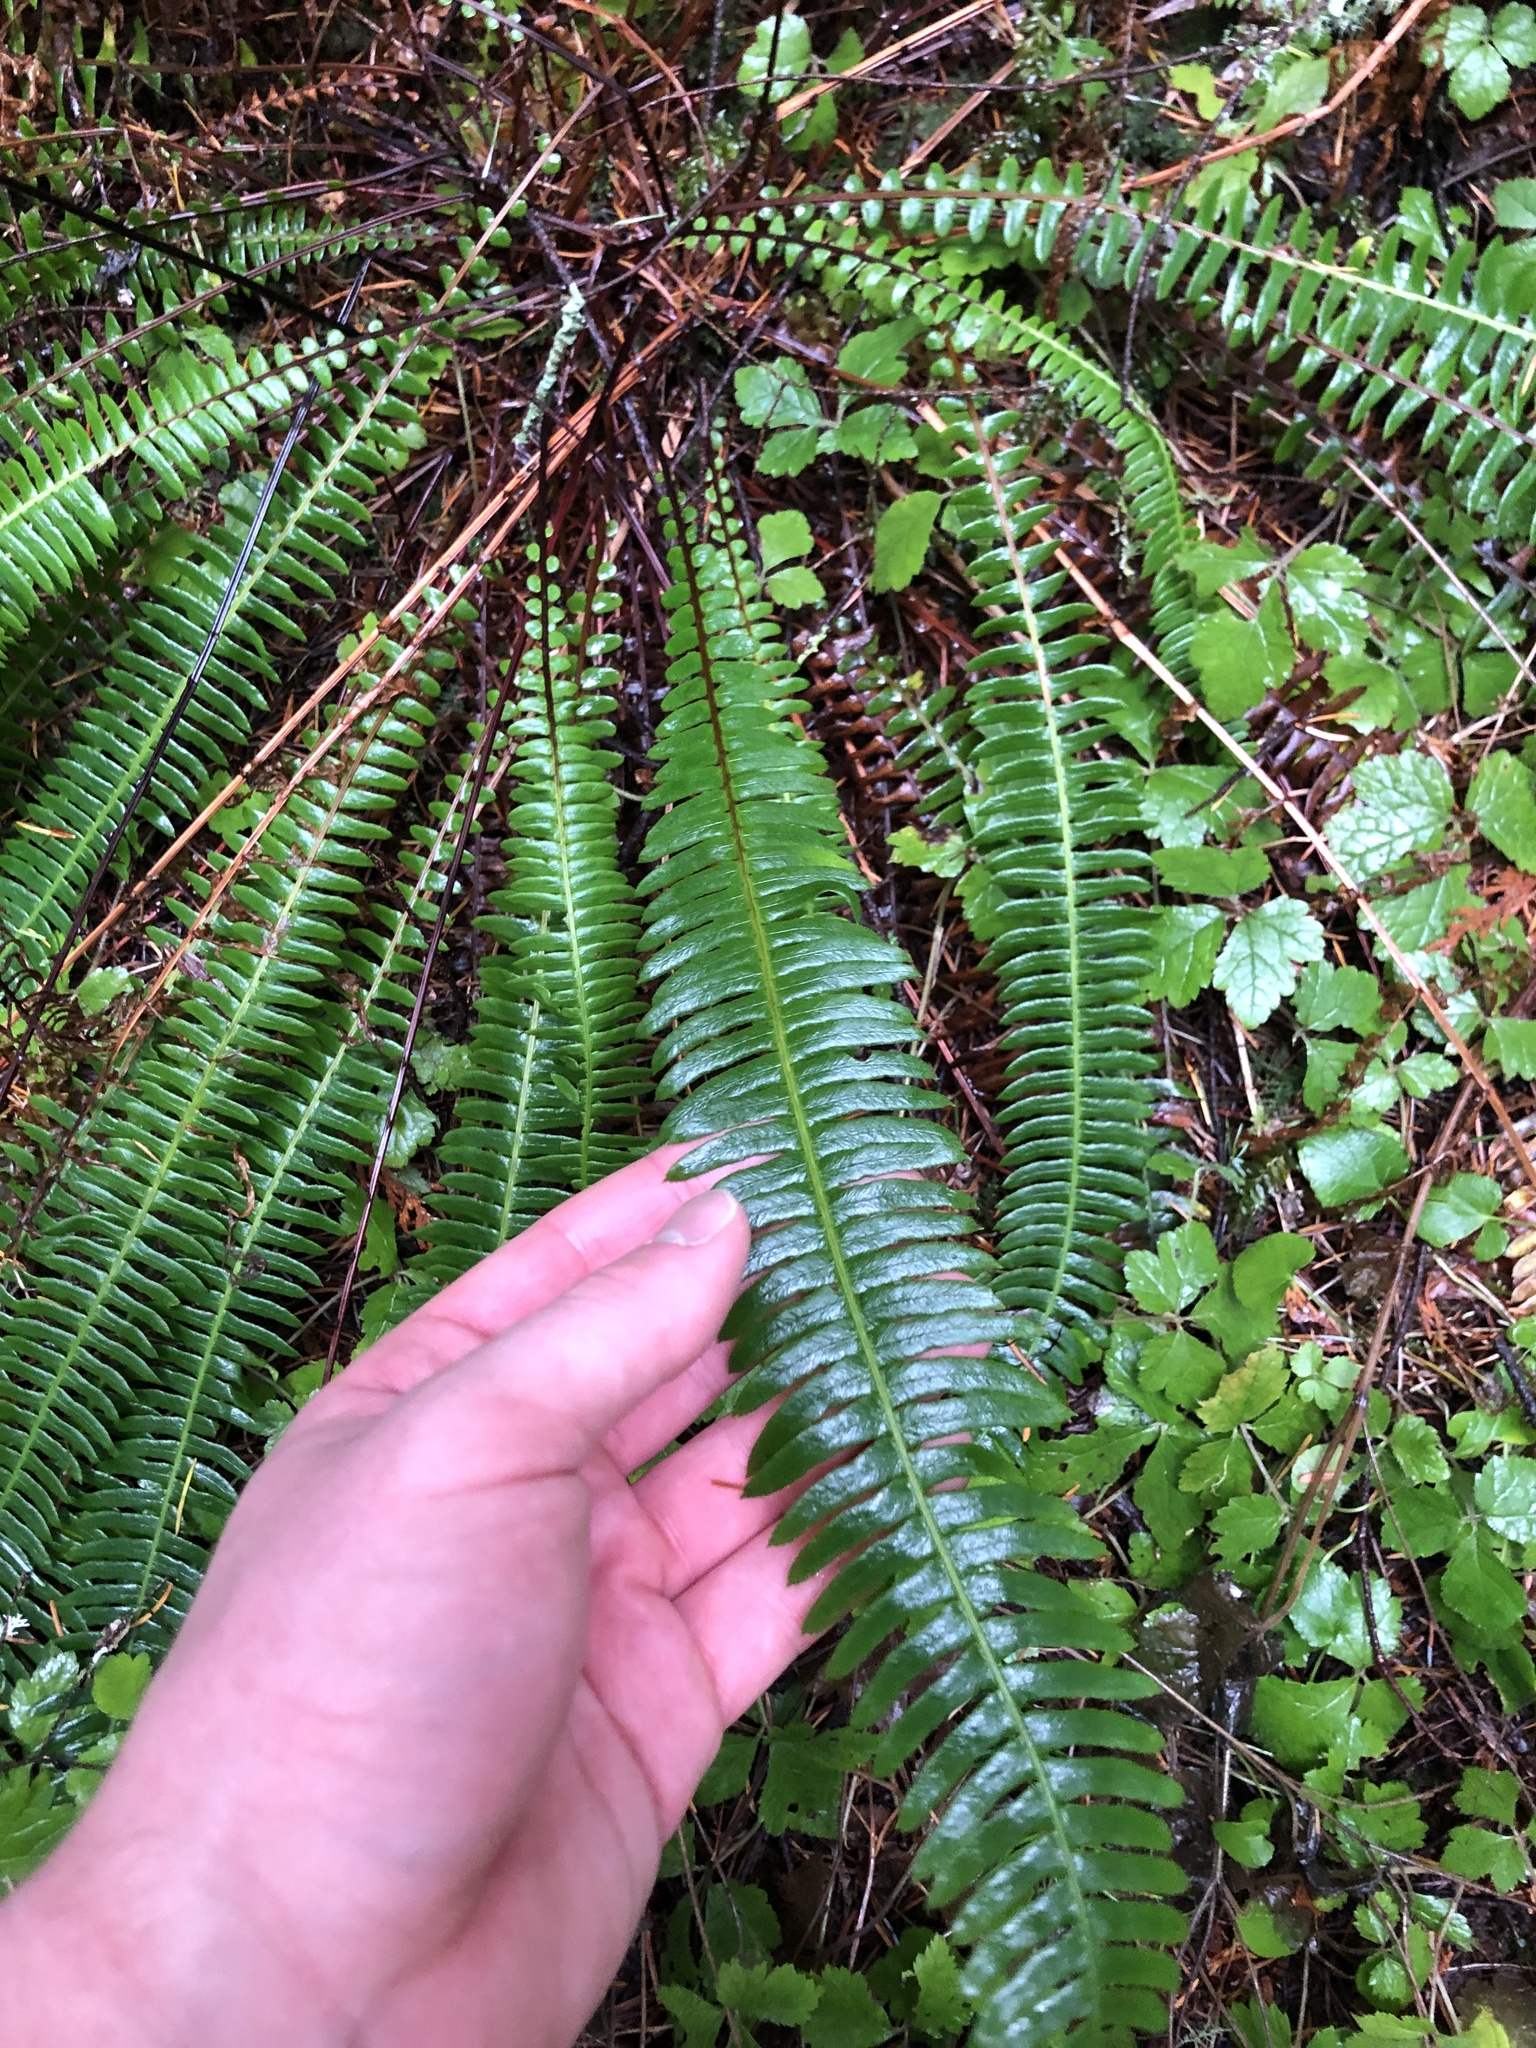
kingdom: Plantae
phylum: Tracheophyta
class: Polypodiopsida
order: Polypodiales
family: Blechnaceae
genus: Struthiopteris
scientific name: Struthiopteris spicant
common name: Deer fern
